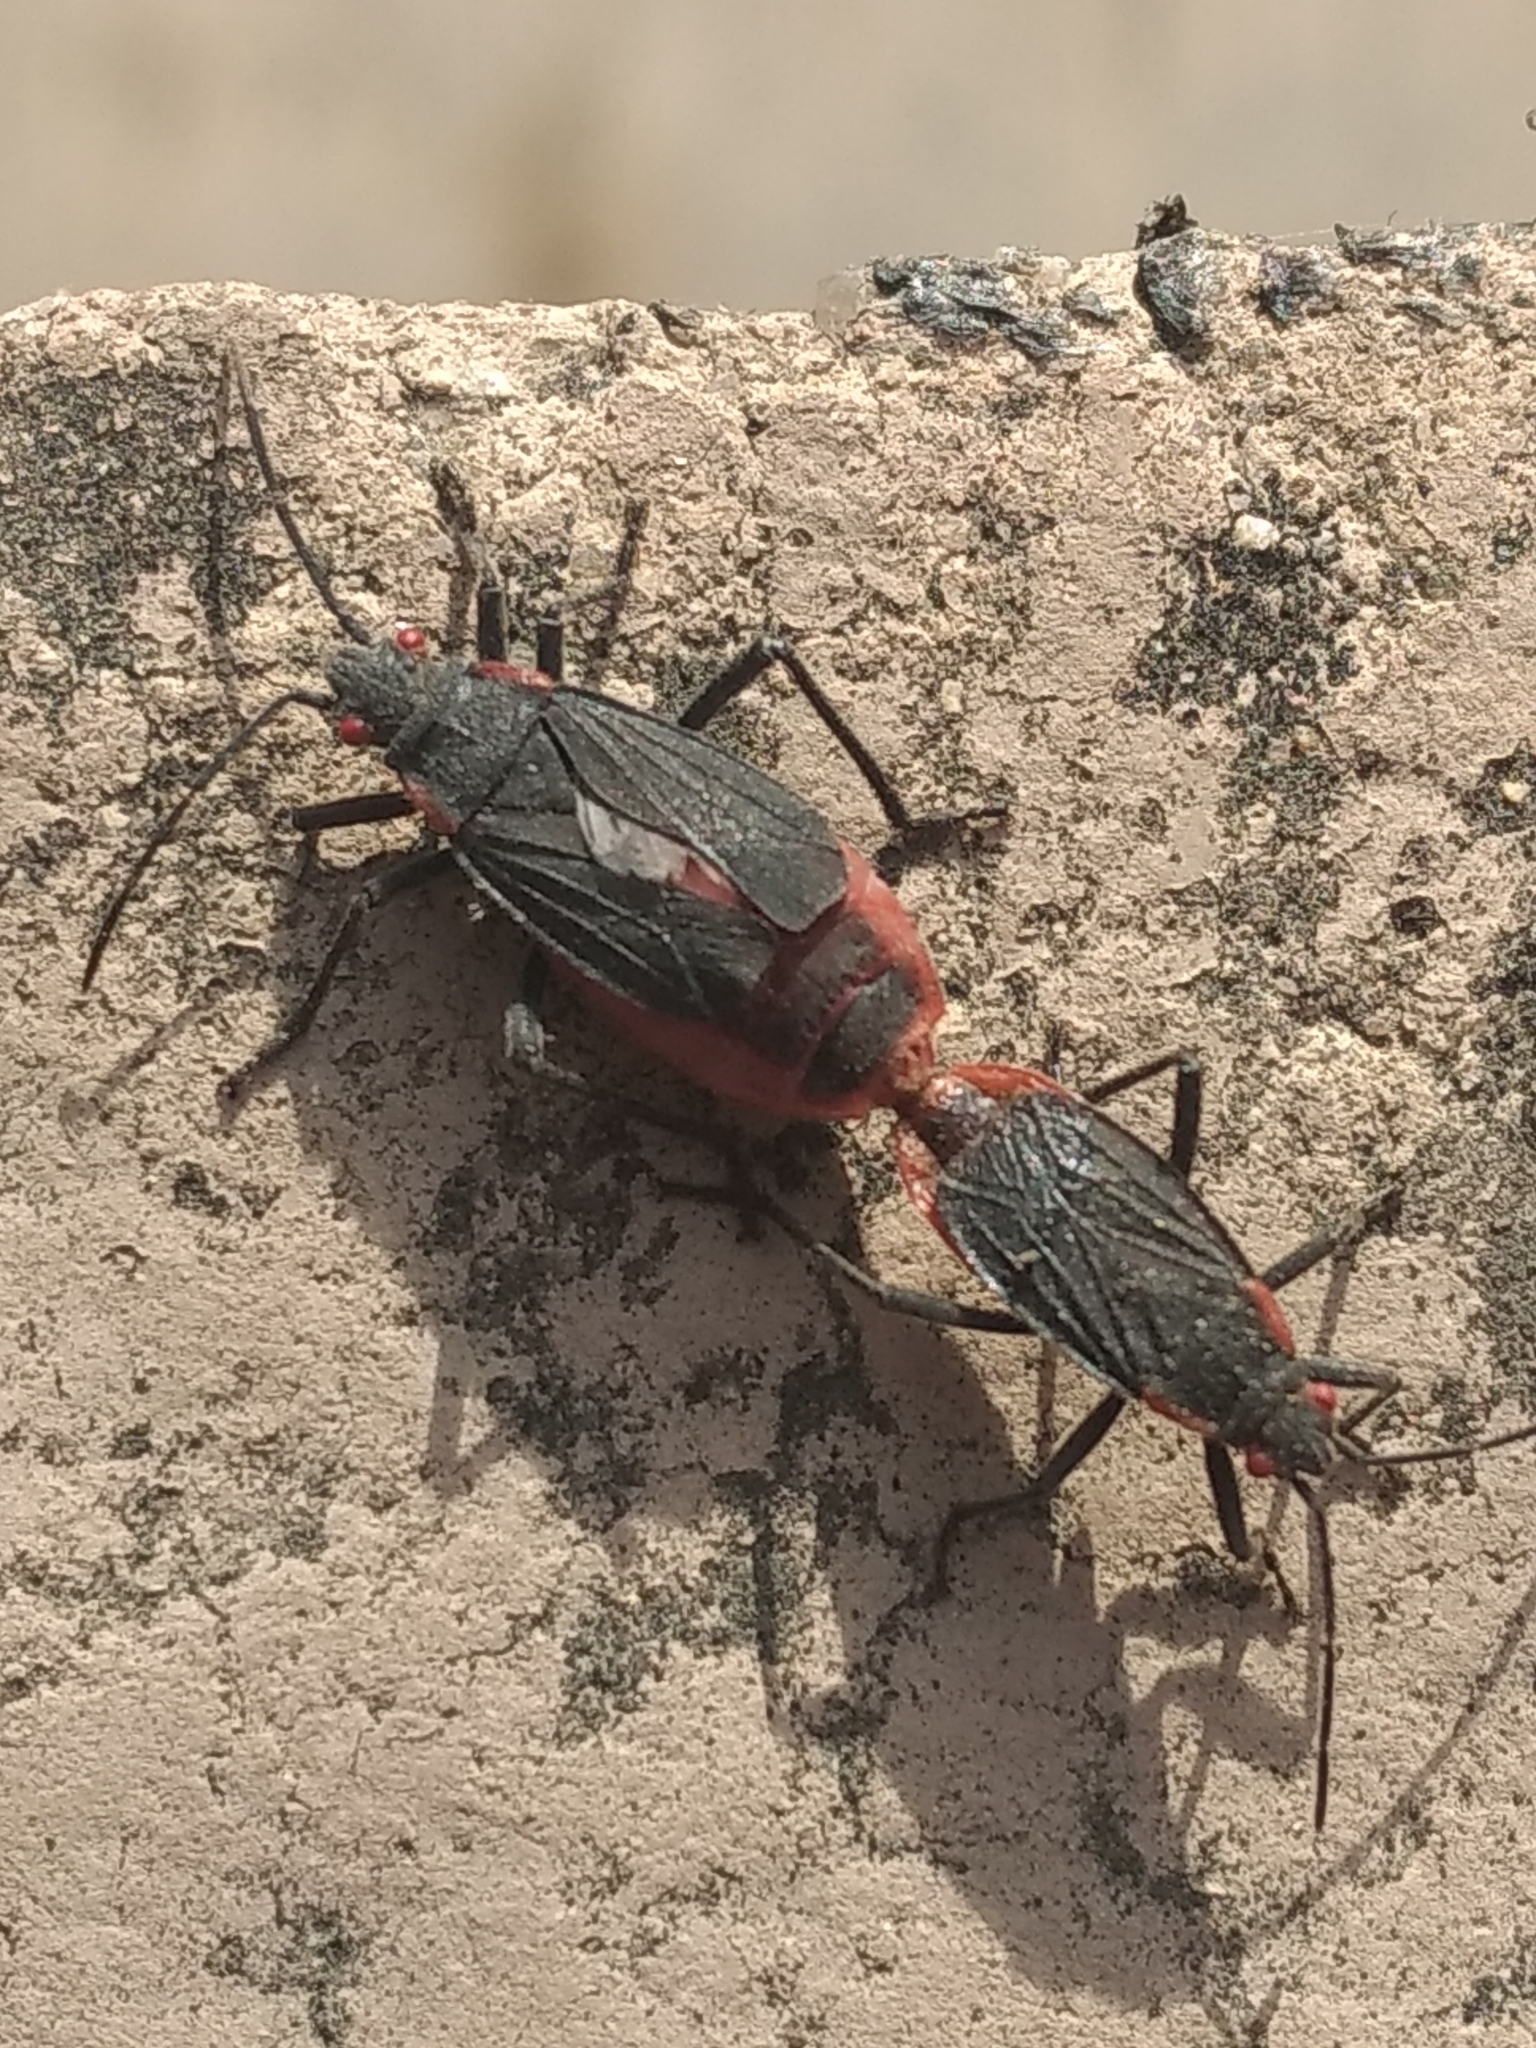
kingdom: Animalia
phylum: Arthropoda
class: Insecta
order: Hemiptera
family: Rhopalidae
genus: Jadera
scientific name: Jadera haematoloma
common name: Red-shouldered bug
